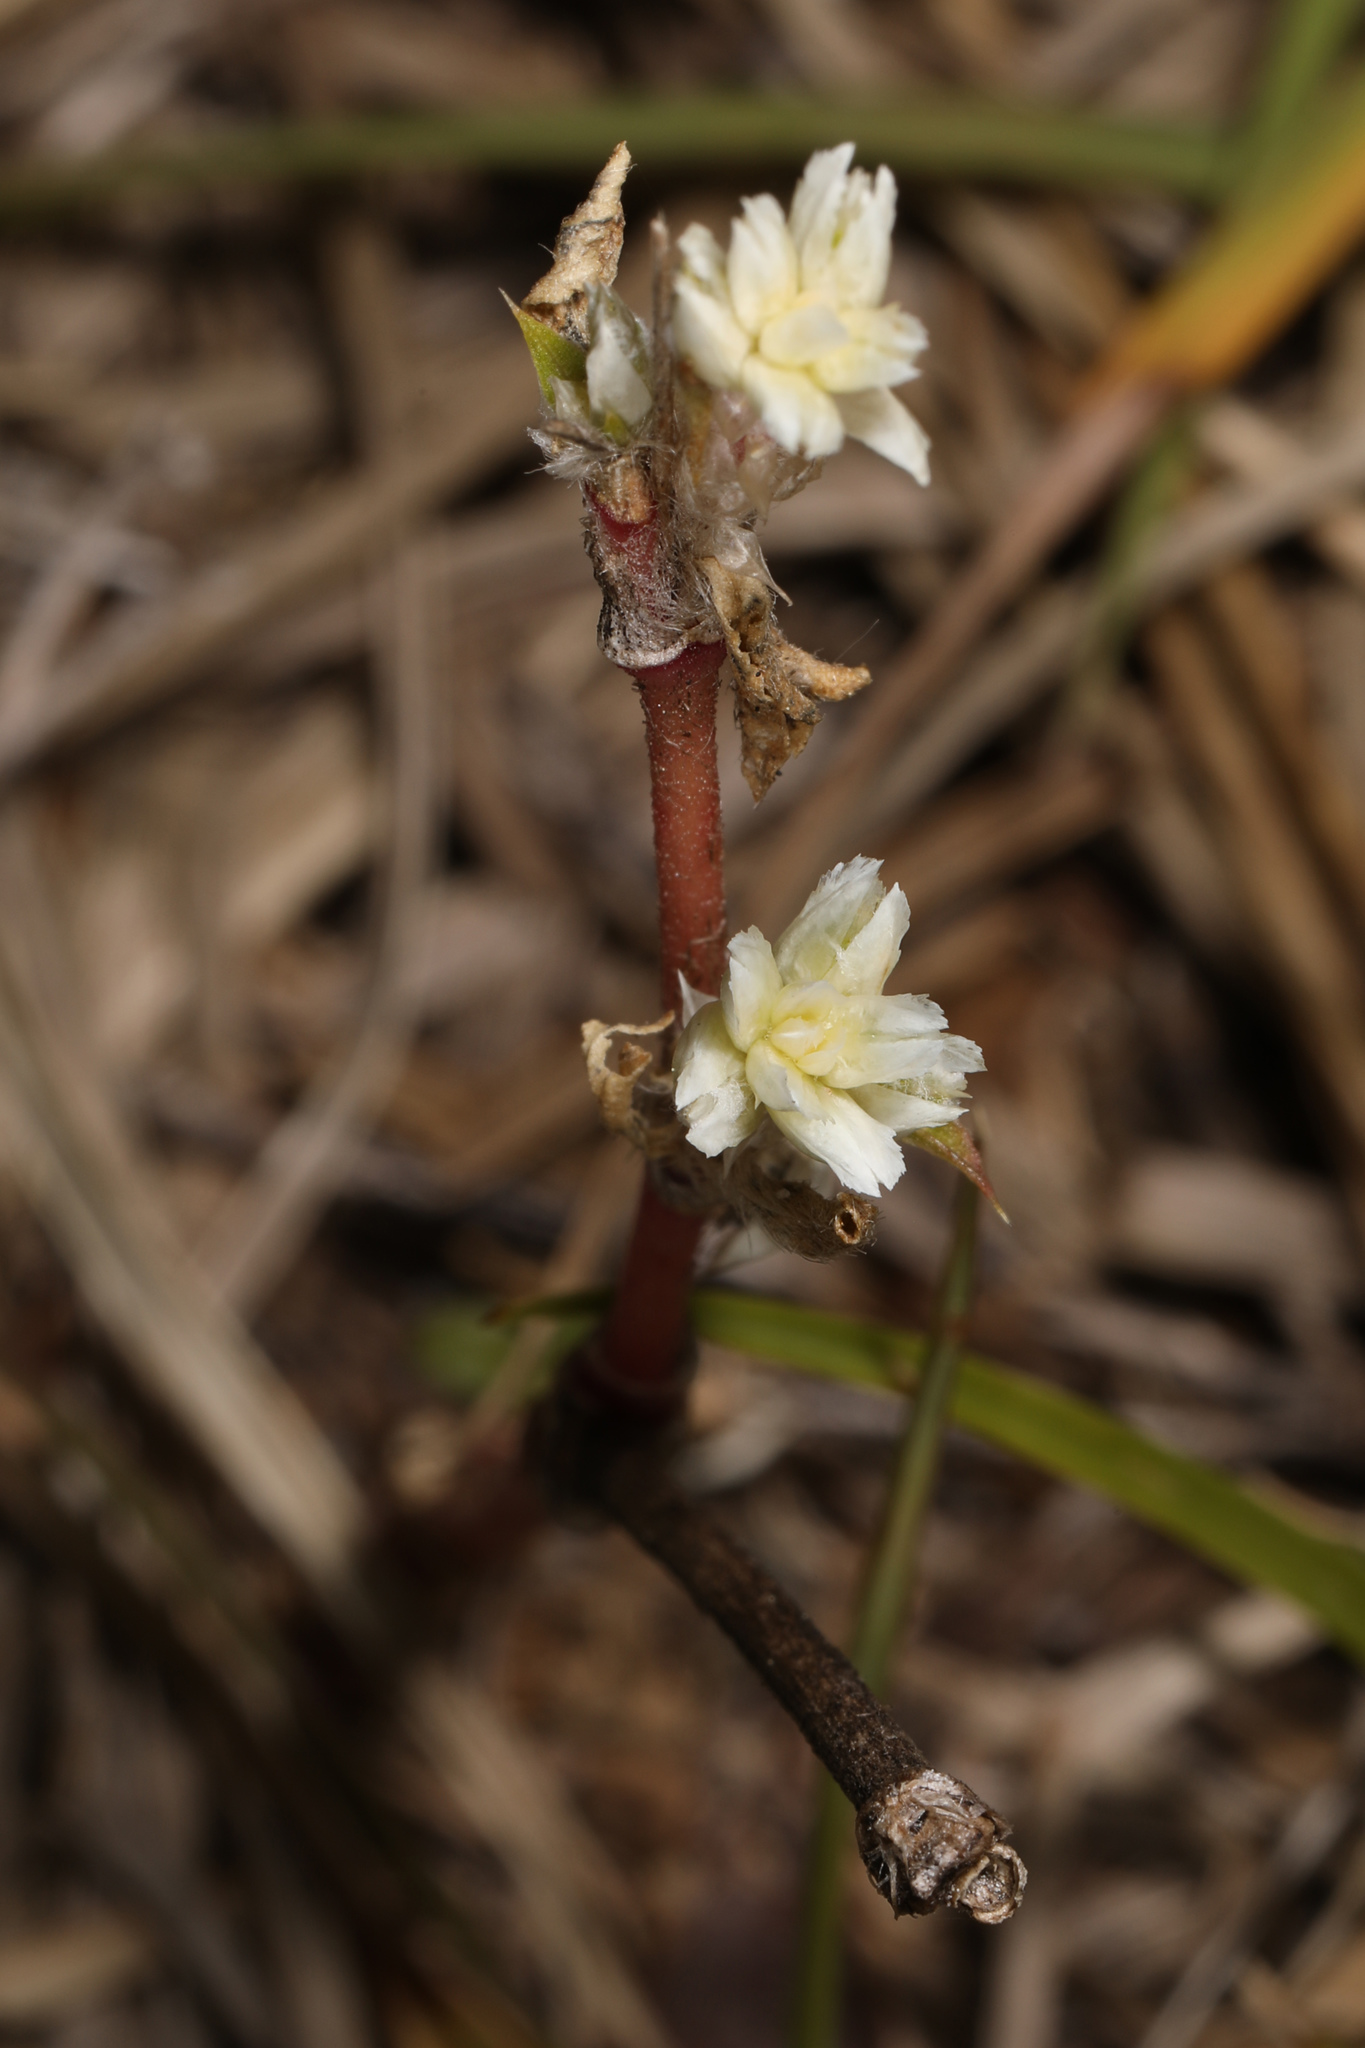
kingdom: Plantae
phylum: Tracheophyta
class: Magnoliopsida
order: Caryophyllales
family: Amaranthaceae
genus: Gomphrena
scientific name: Gomphrena serrata
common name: Arrasa con todo
